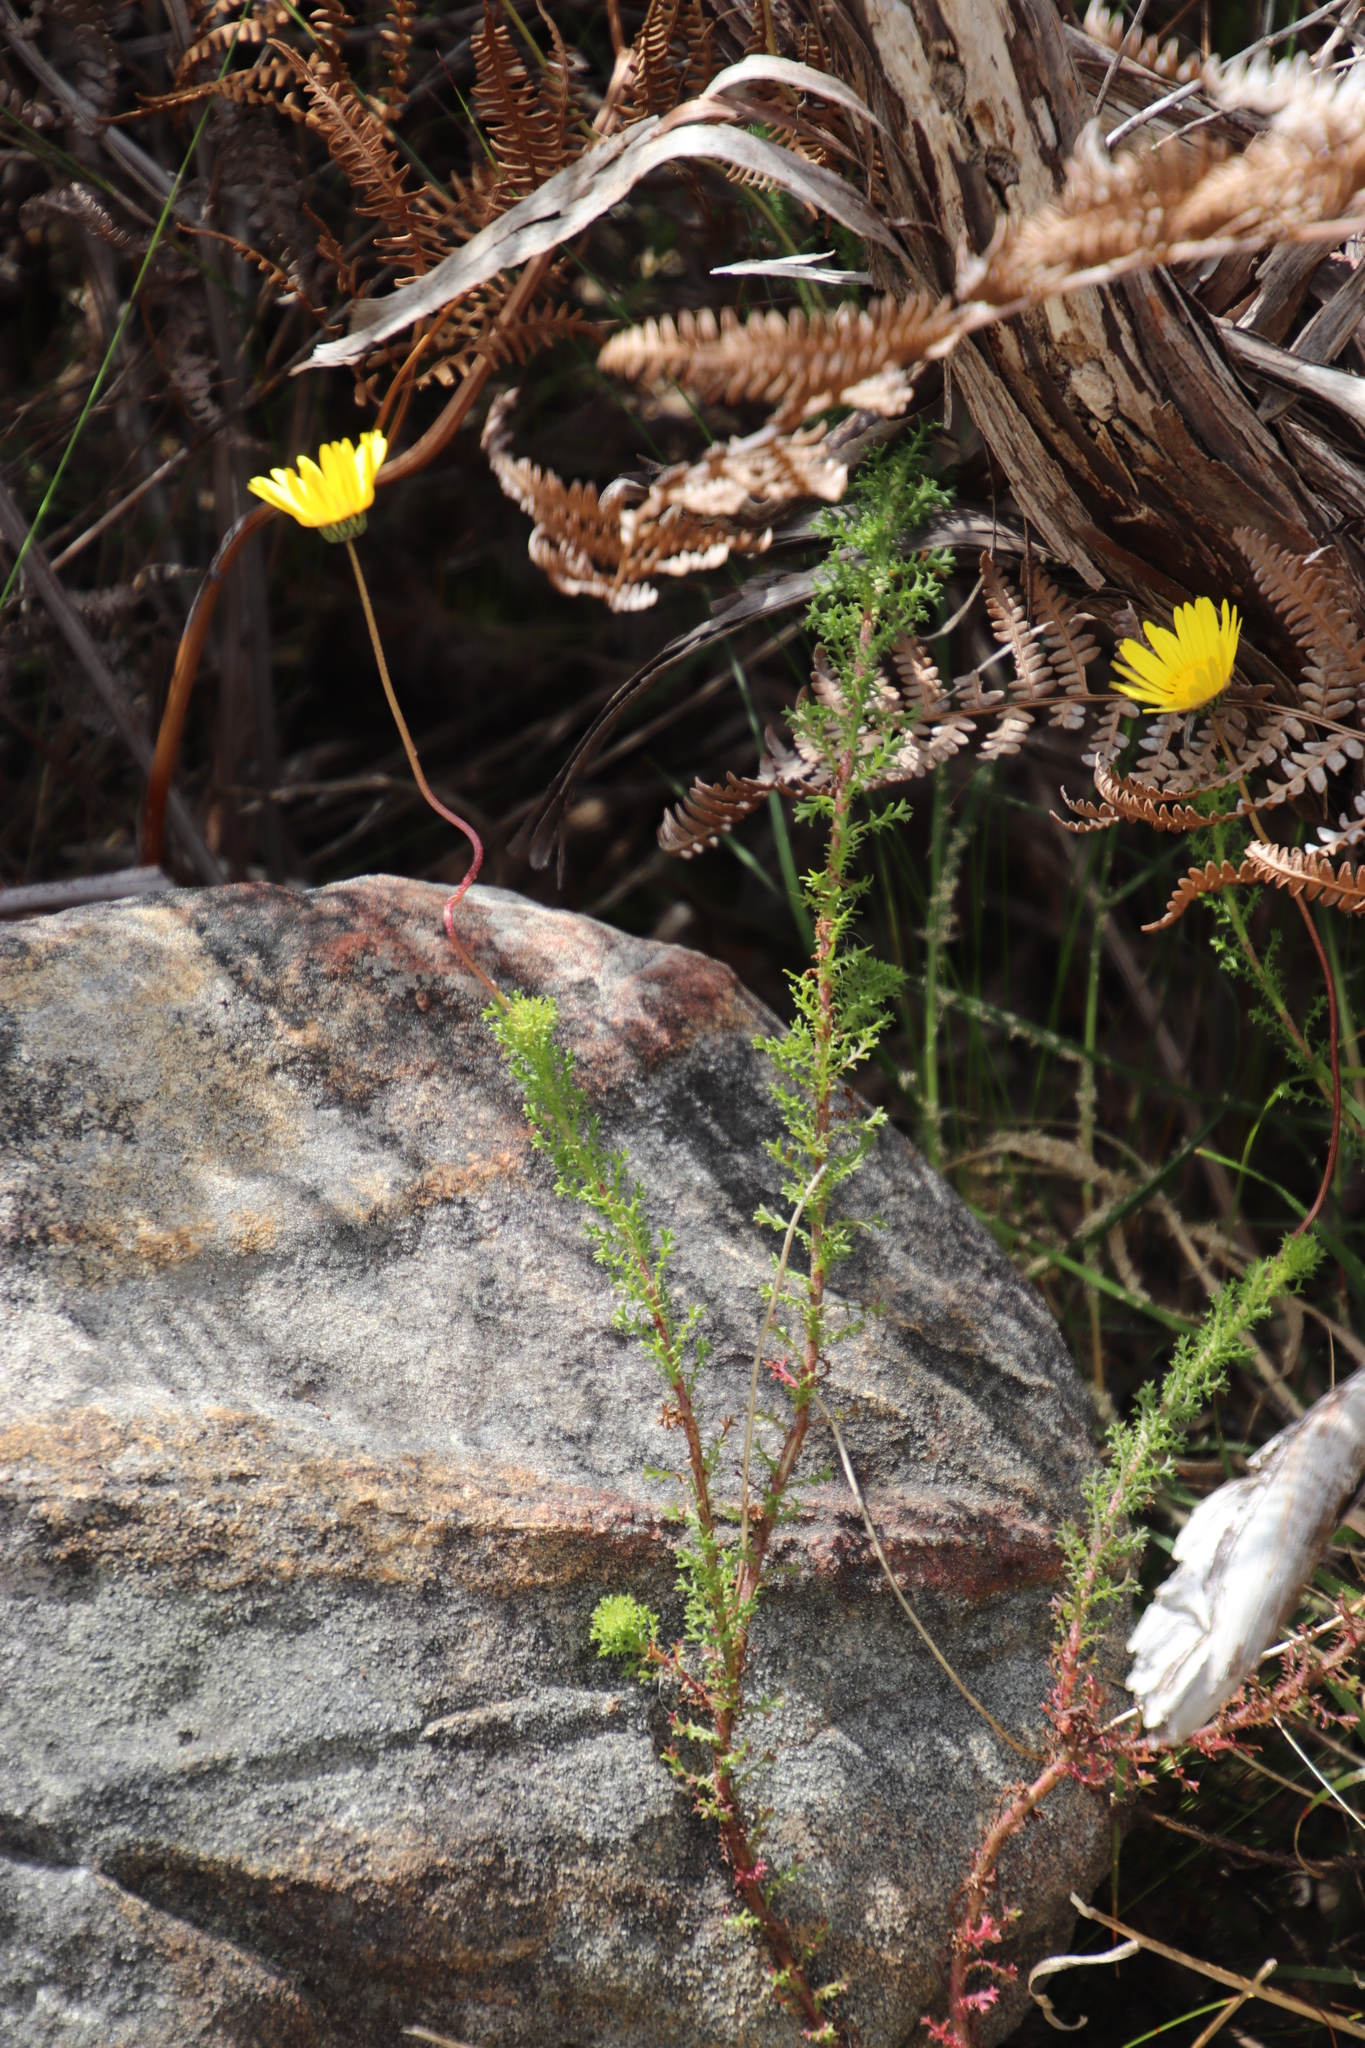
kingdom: Plantae
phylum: Tracheophyta
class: Magnoliopsida
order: Asterales
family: Asteraceae
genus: Ursinia
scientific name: Ursinia dentata
